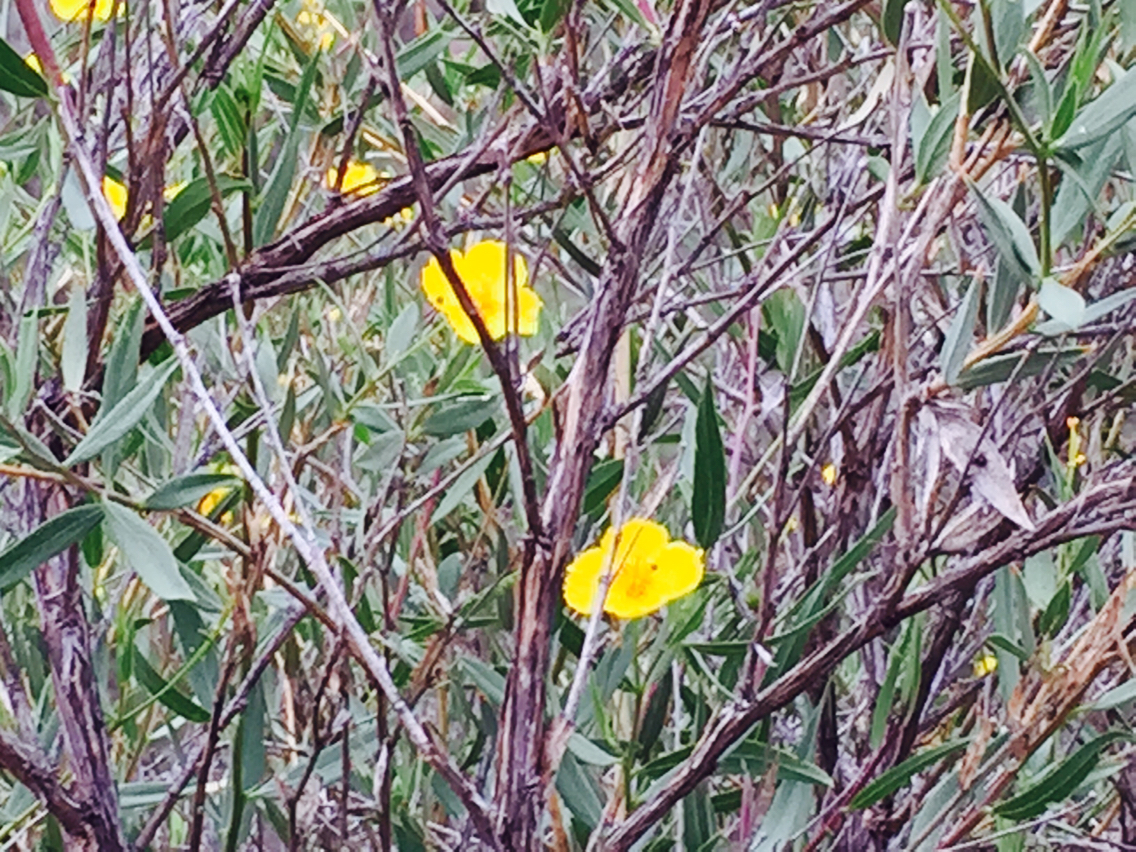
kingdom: Plantae
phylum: Tracheophyta
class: Magnoliopsida
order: Ranunculales
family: Papaveraceae
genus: Dendromecon
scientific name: Dendromecon rigida
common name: Tree poppy
